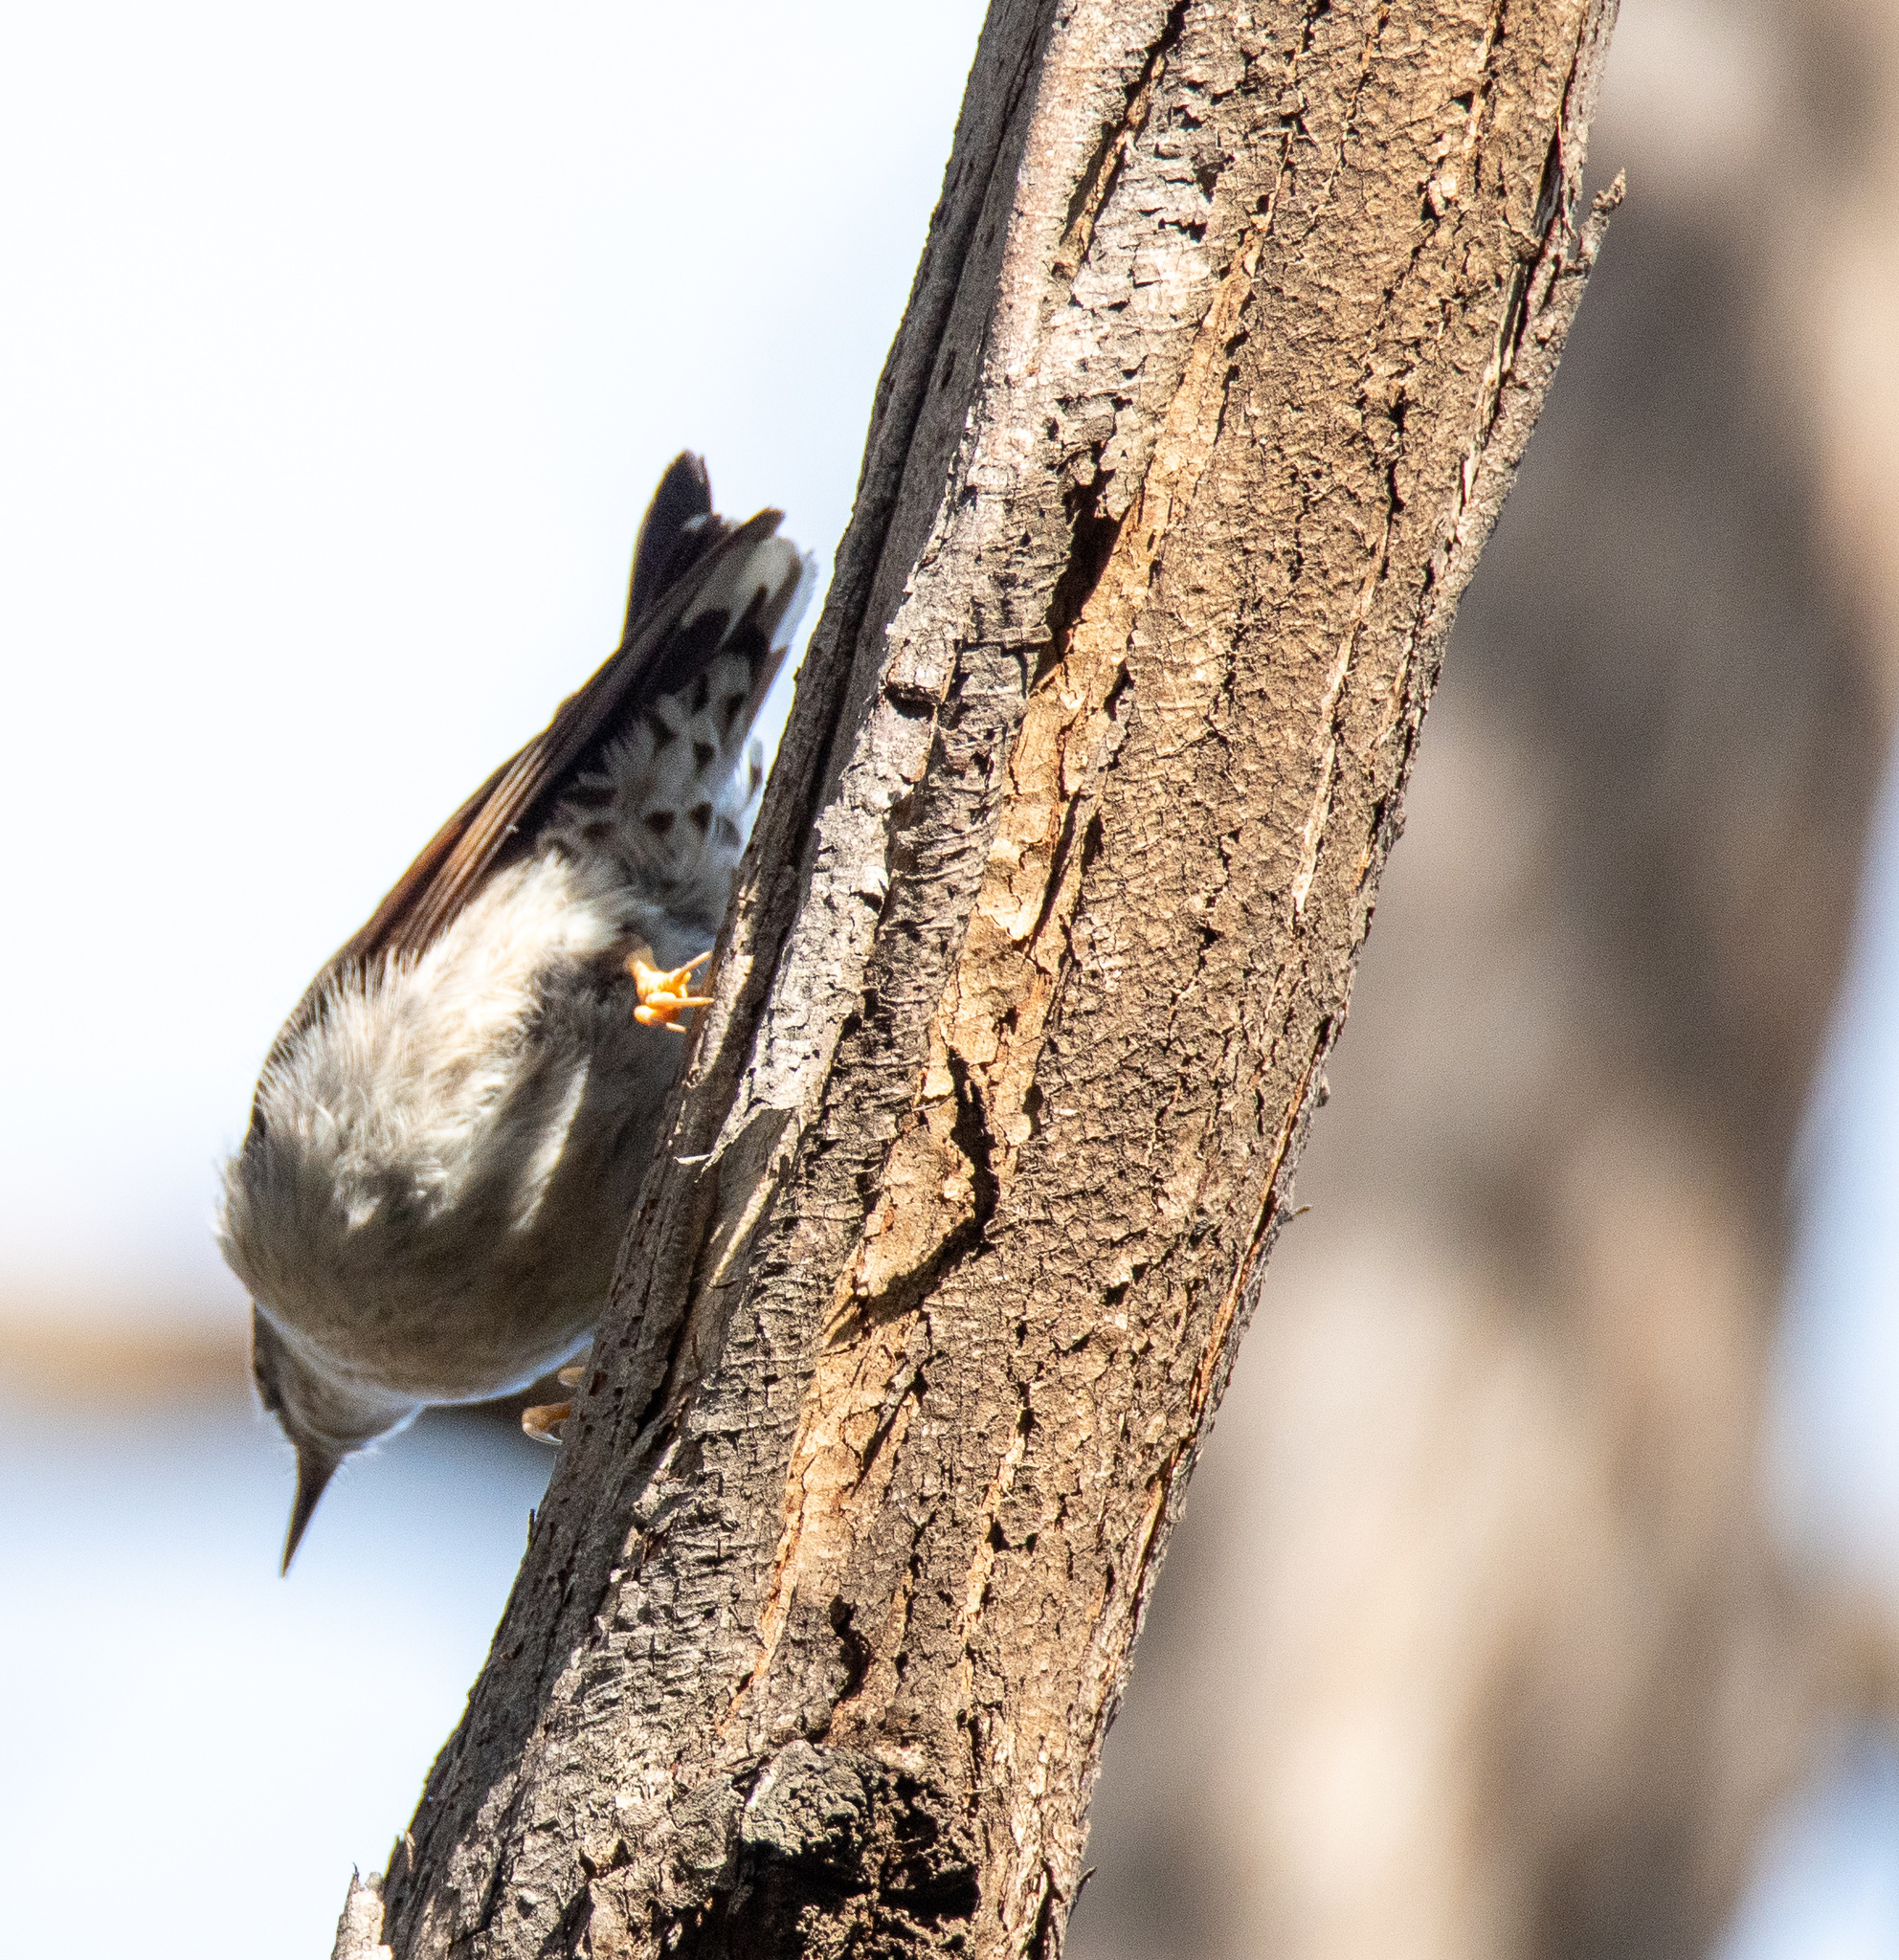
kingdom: Animalia
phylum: Chordata
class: Aves
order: Passeriformes
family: Neosittidae
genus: Daphoenositta
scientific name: Daphoenositta chrysoptera
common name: Varied sittella
